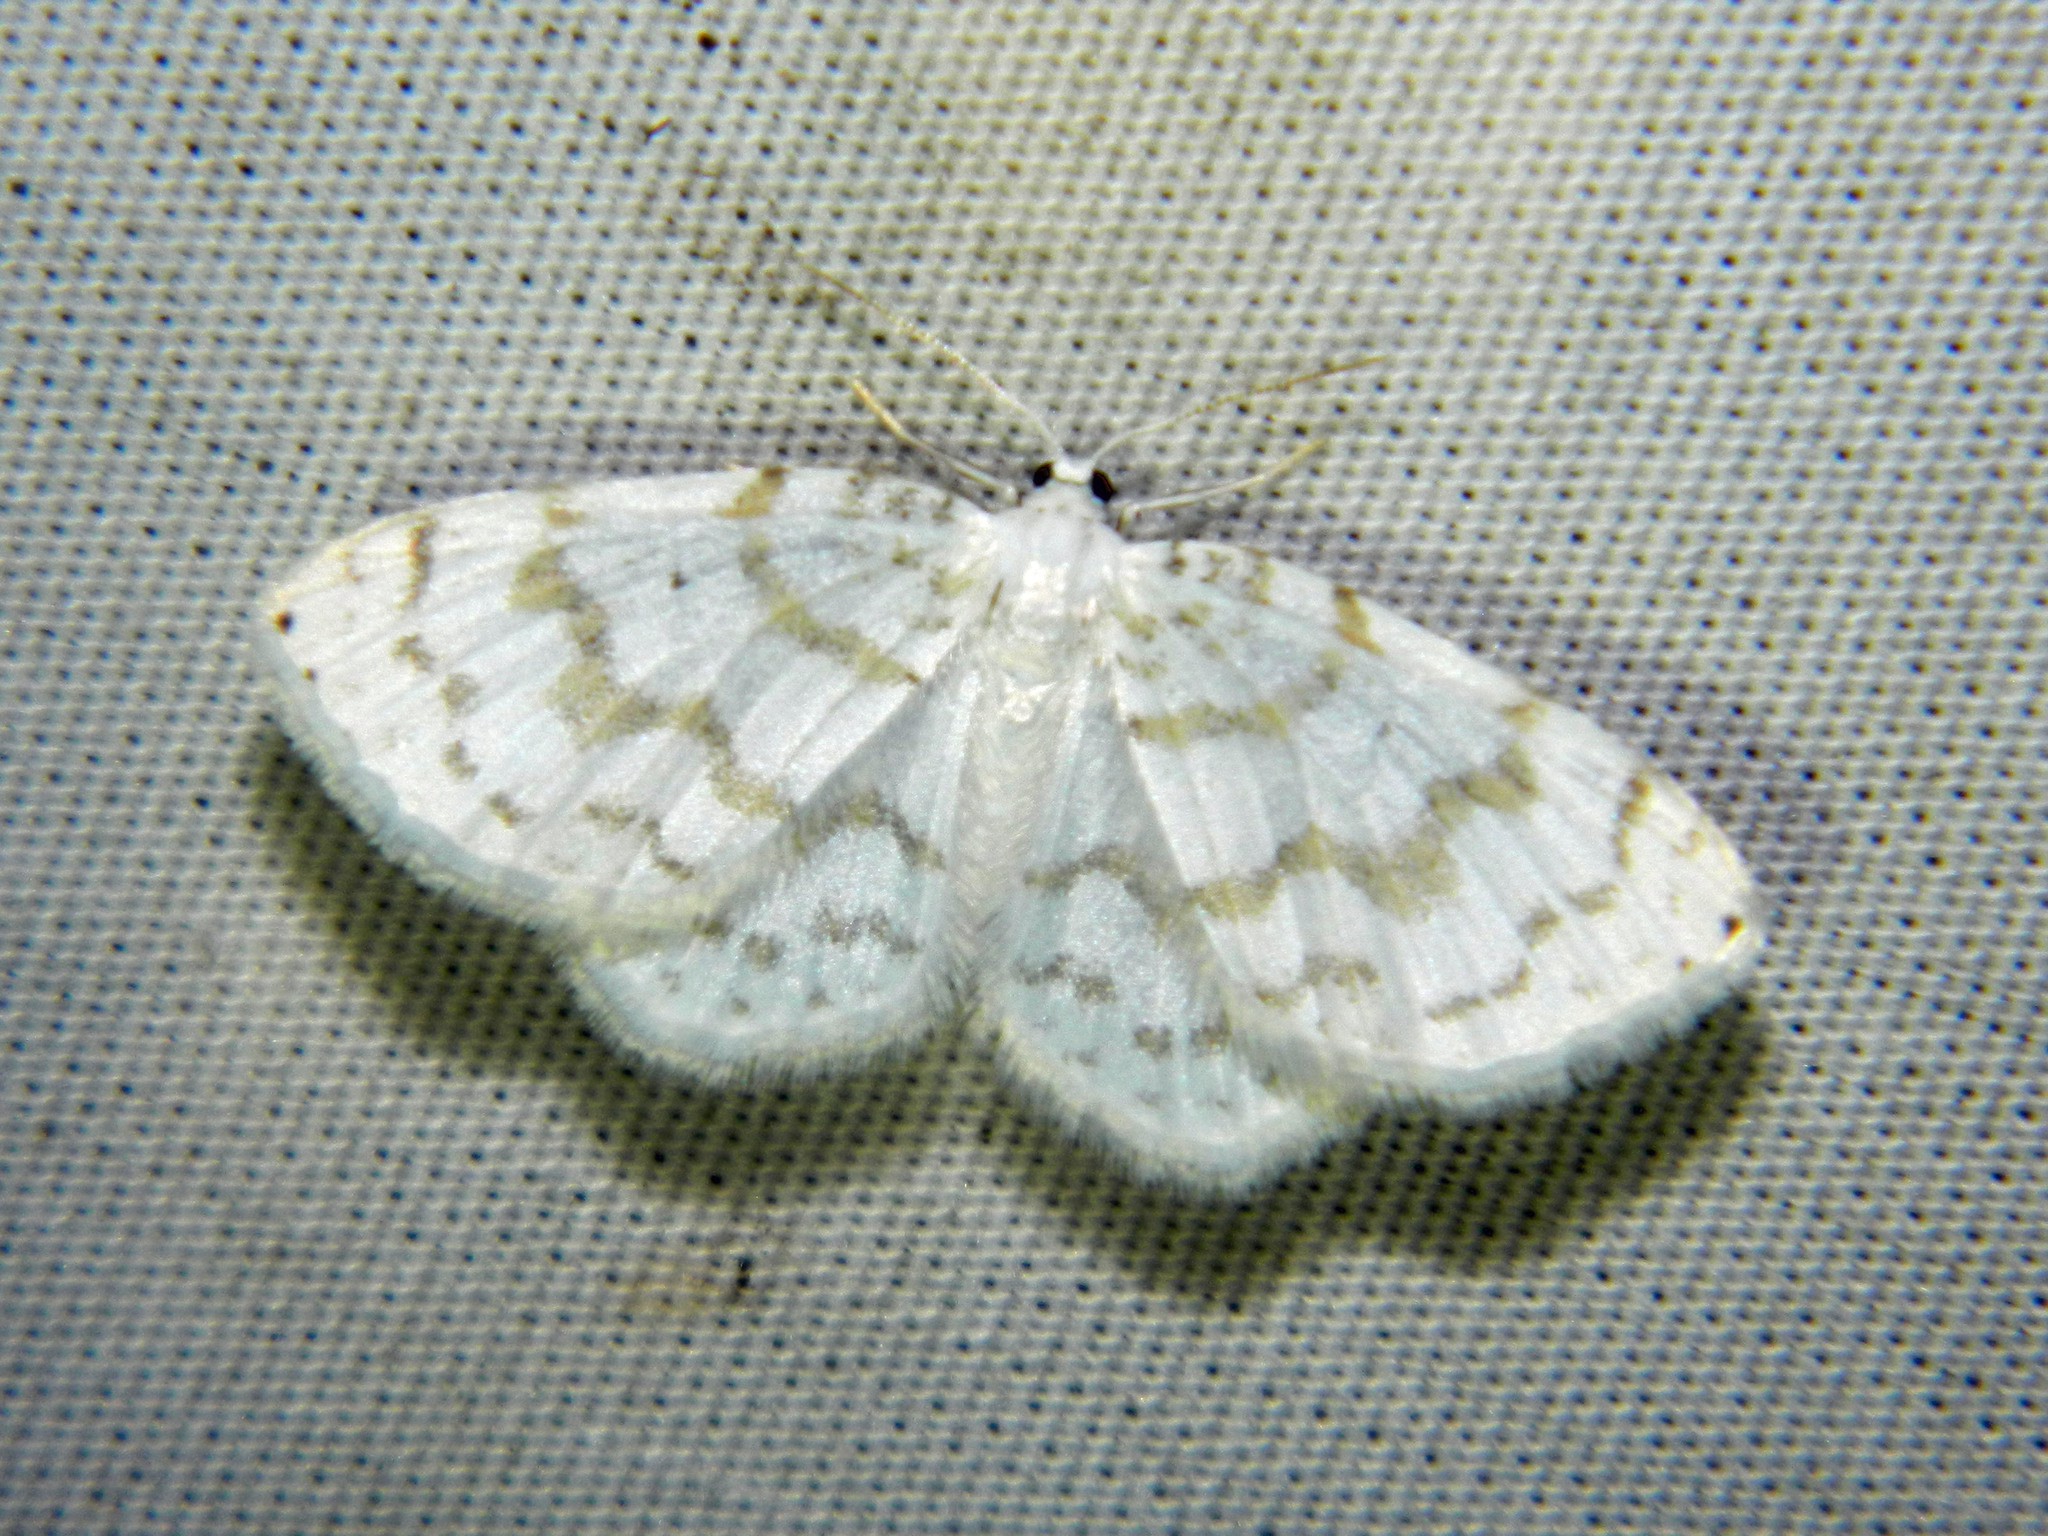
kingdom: Animalia
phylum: Arthropoda
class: Insecta
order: Lepidoptera
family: Geometridae
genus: Hydrelia
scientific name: Hydrelia albifera
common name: Fragile white carpet
